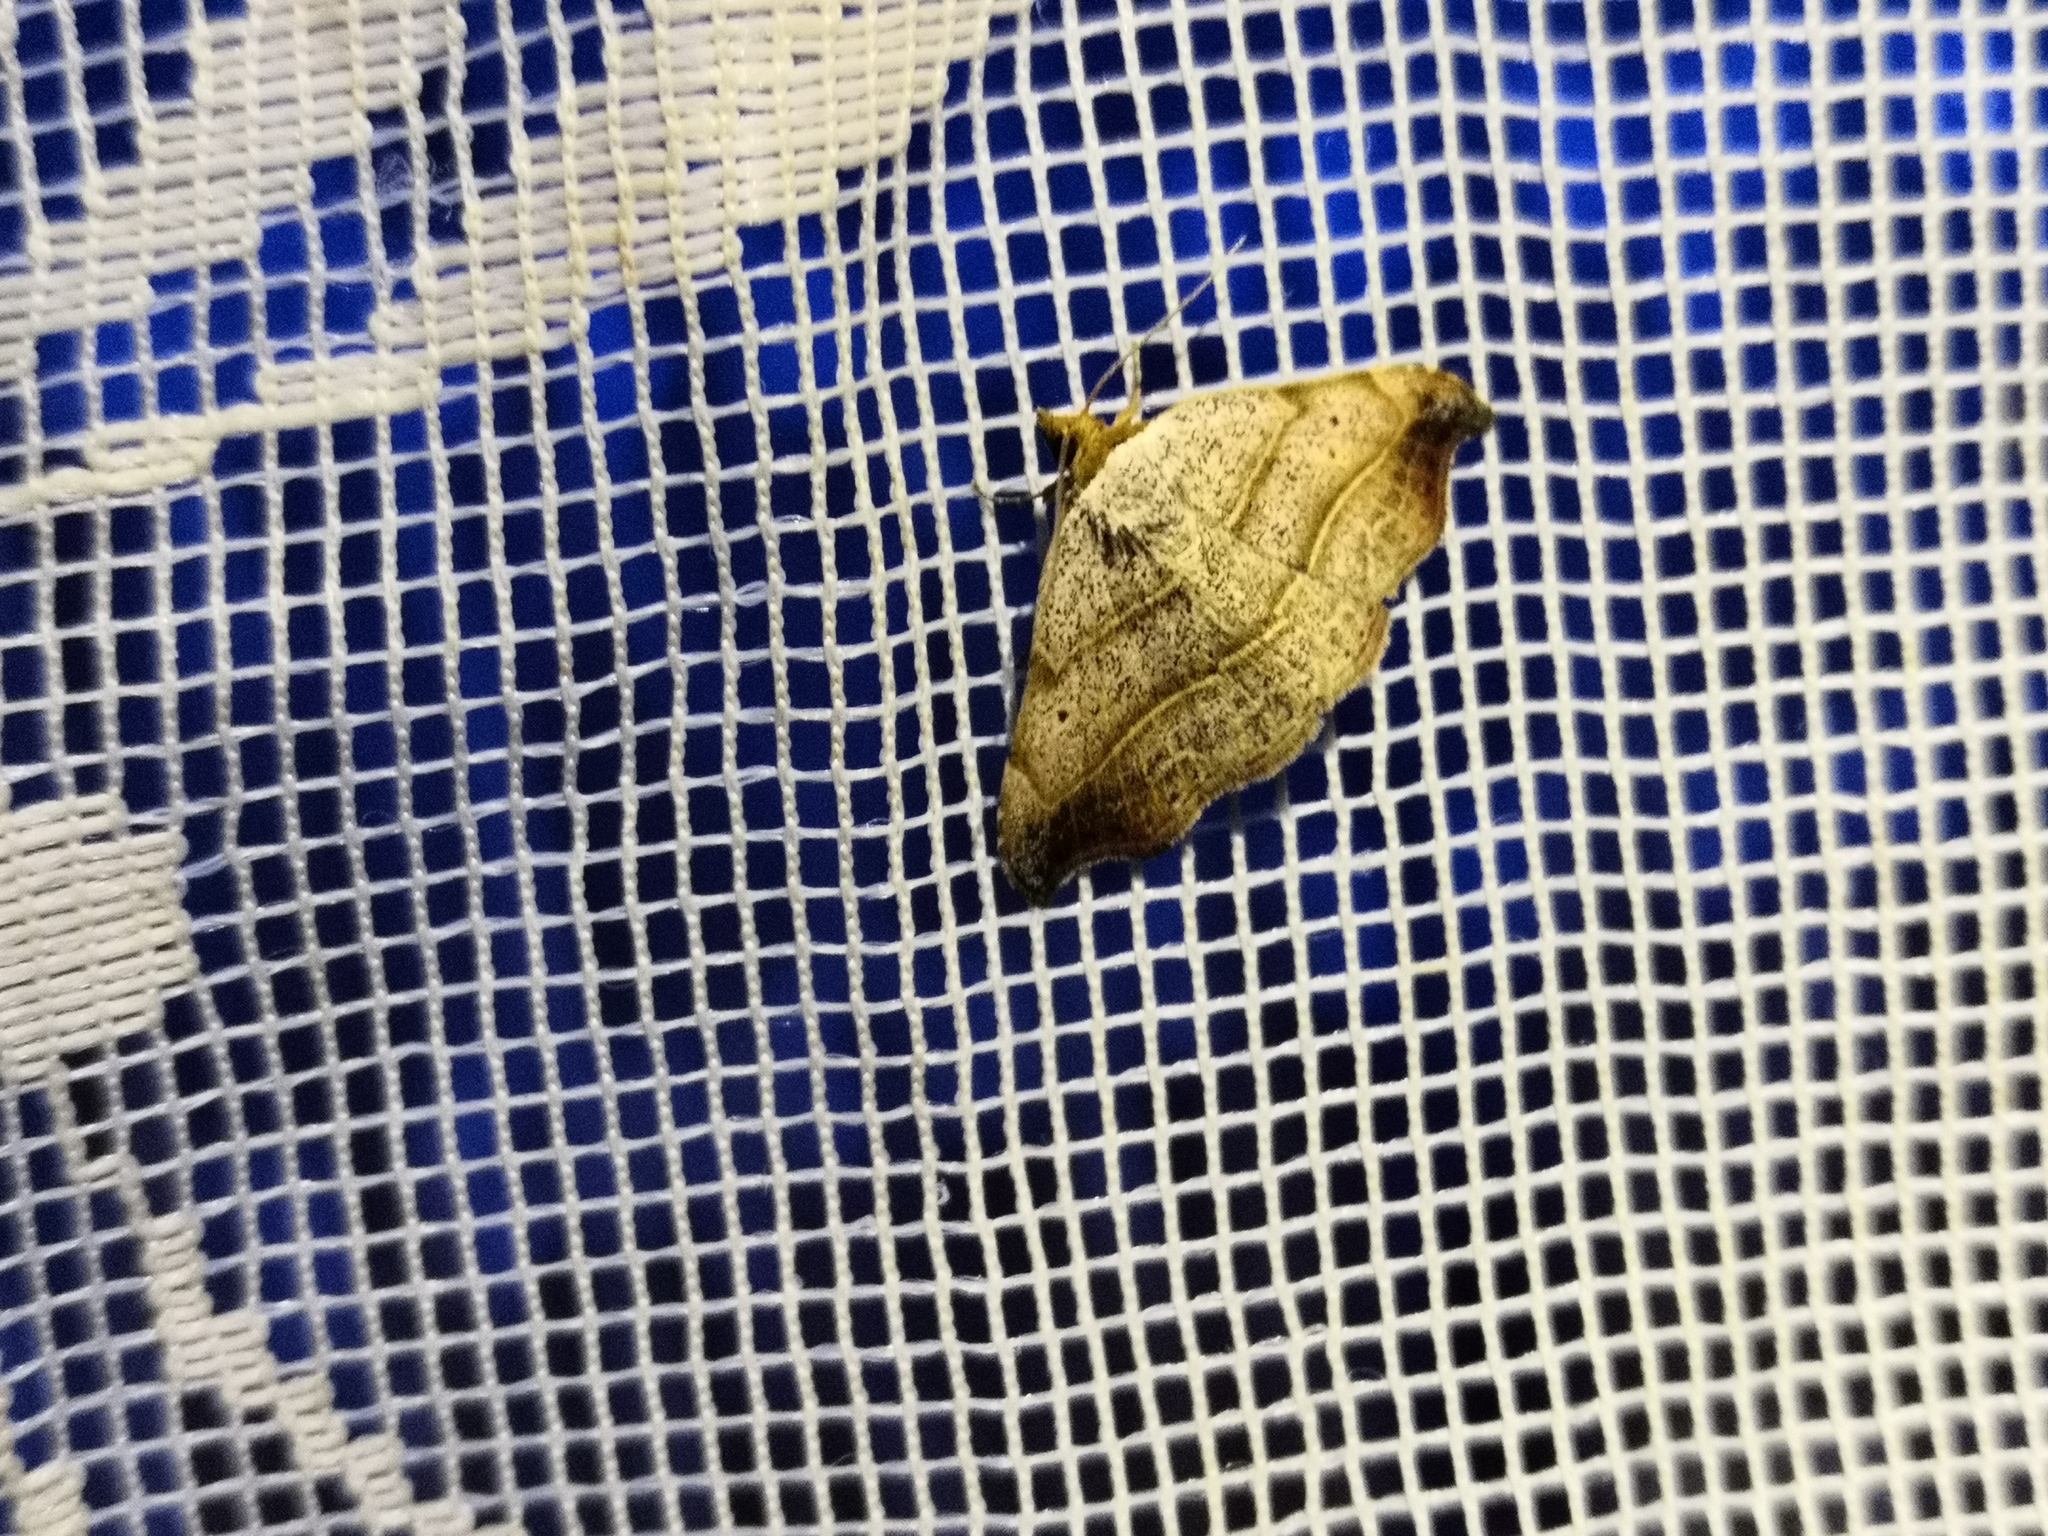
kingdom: Animalia
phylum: Arthropoda
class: Insecta
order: Lepidoptera
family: Erebidae
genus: Laspeyria
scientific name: Laspeyria flexula
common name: Beautiful hook-tip
